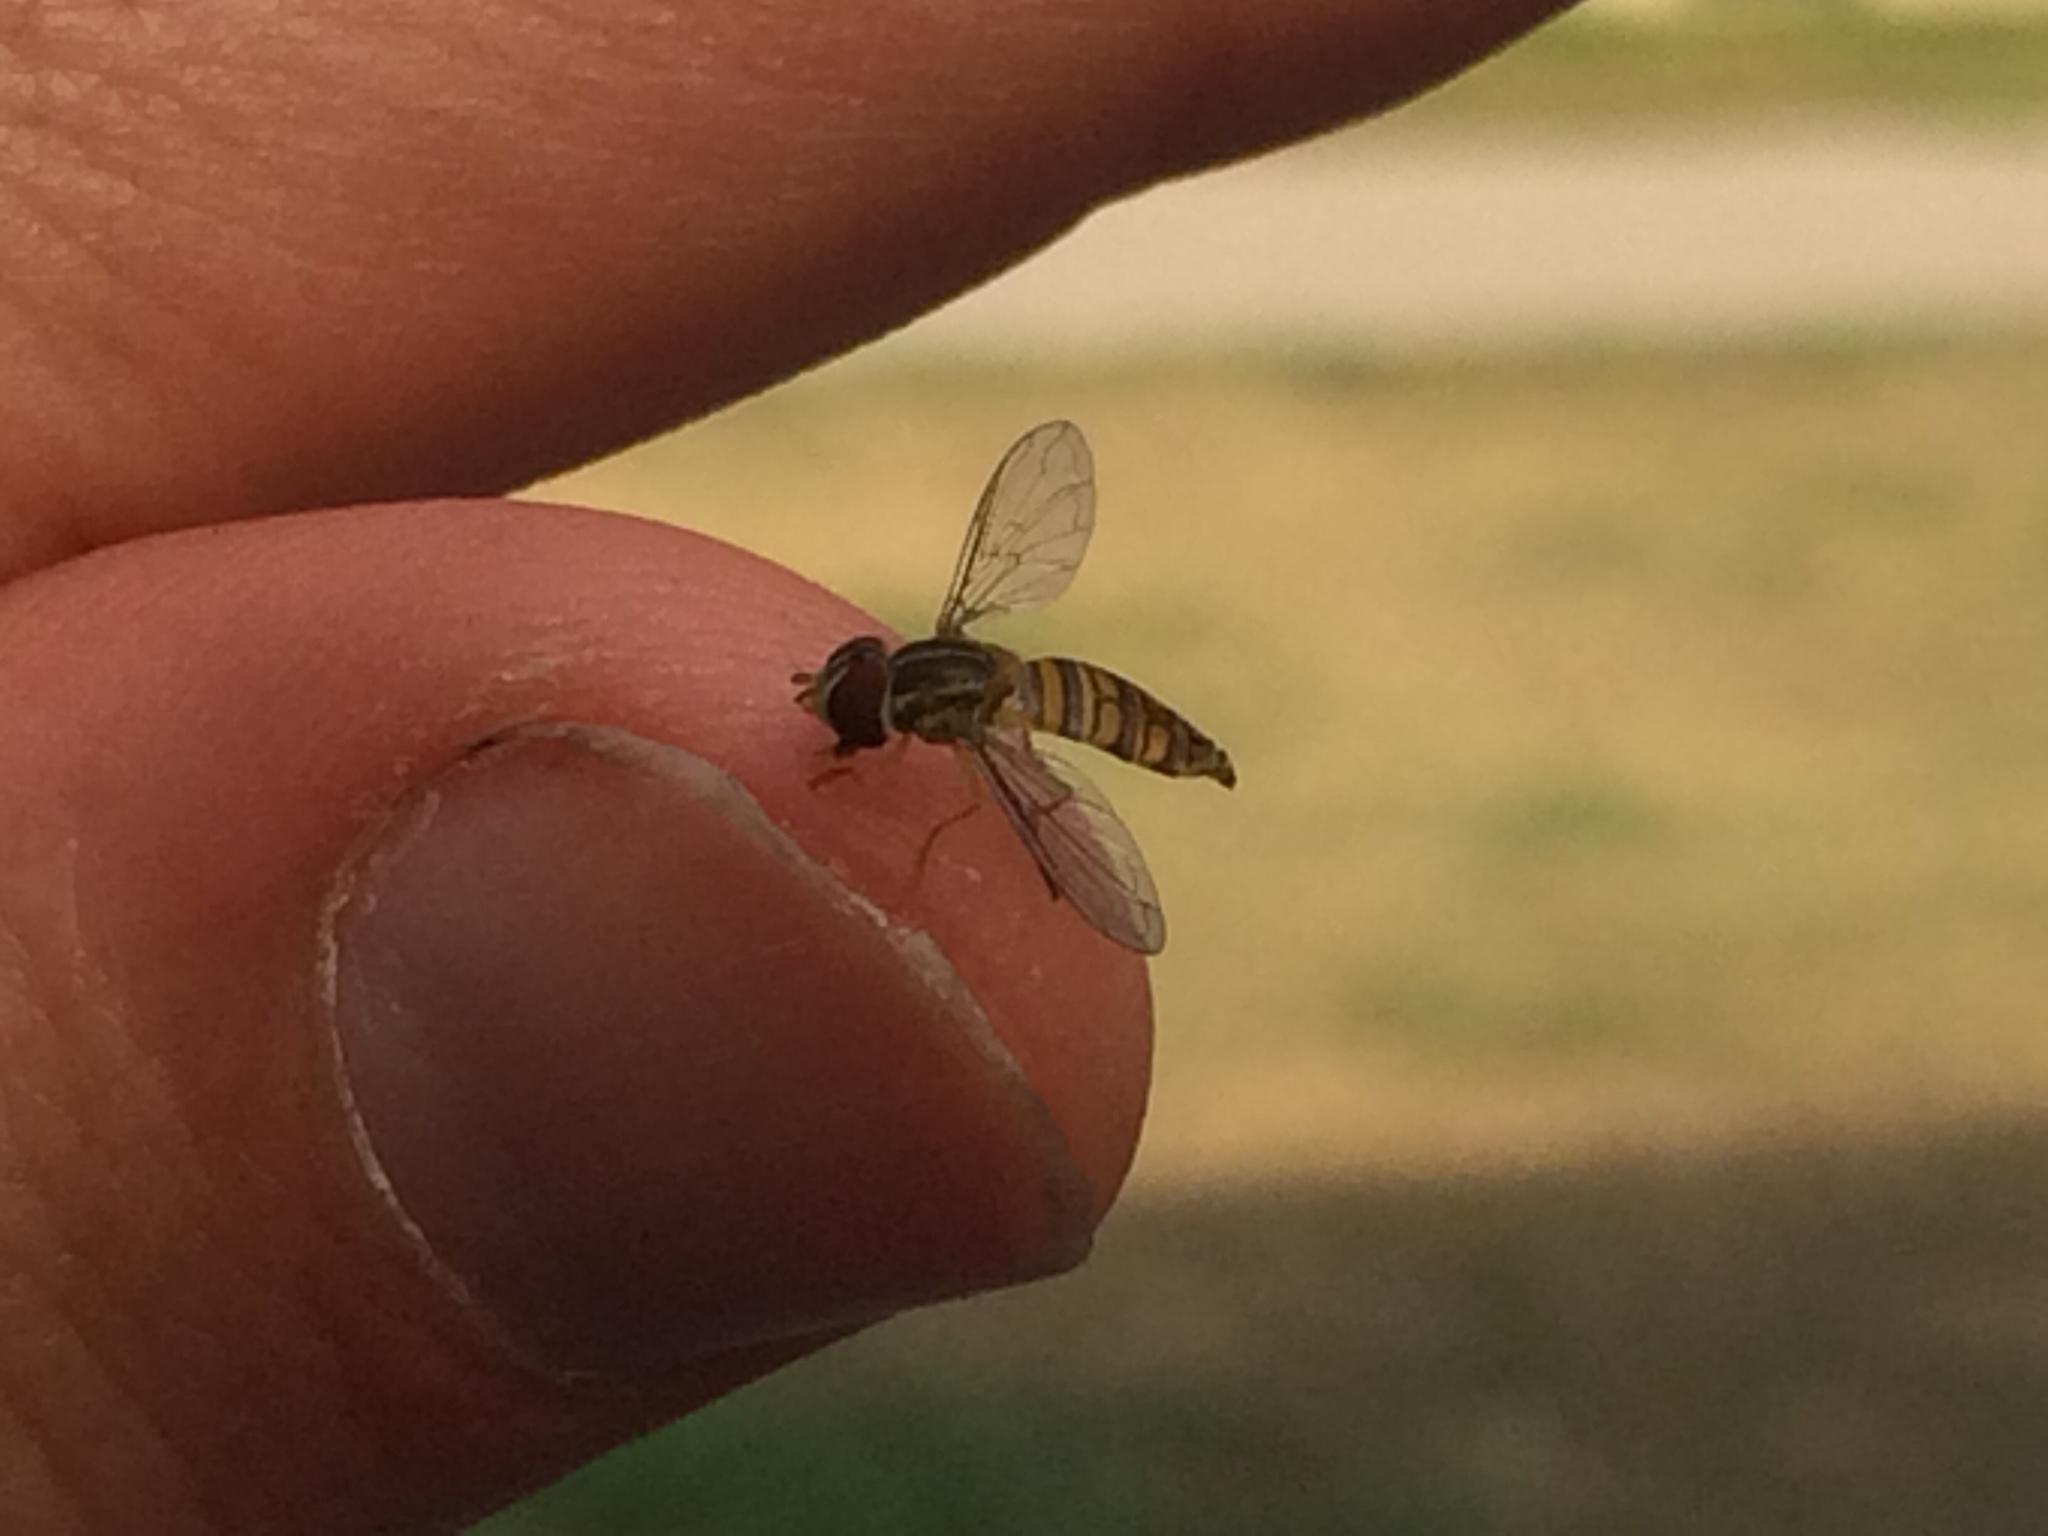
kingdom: Animalia
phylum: Arthropoda
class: Insecta
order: Diptera
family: Syrphidae
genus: Toxomerus
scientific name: Toxomerus politus
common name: Maize calligrapher
